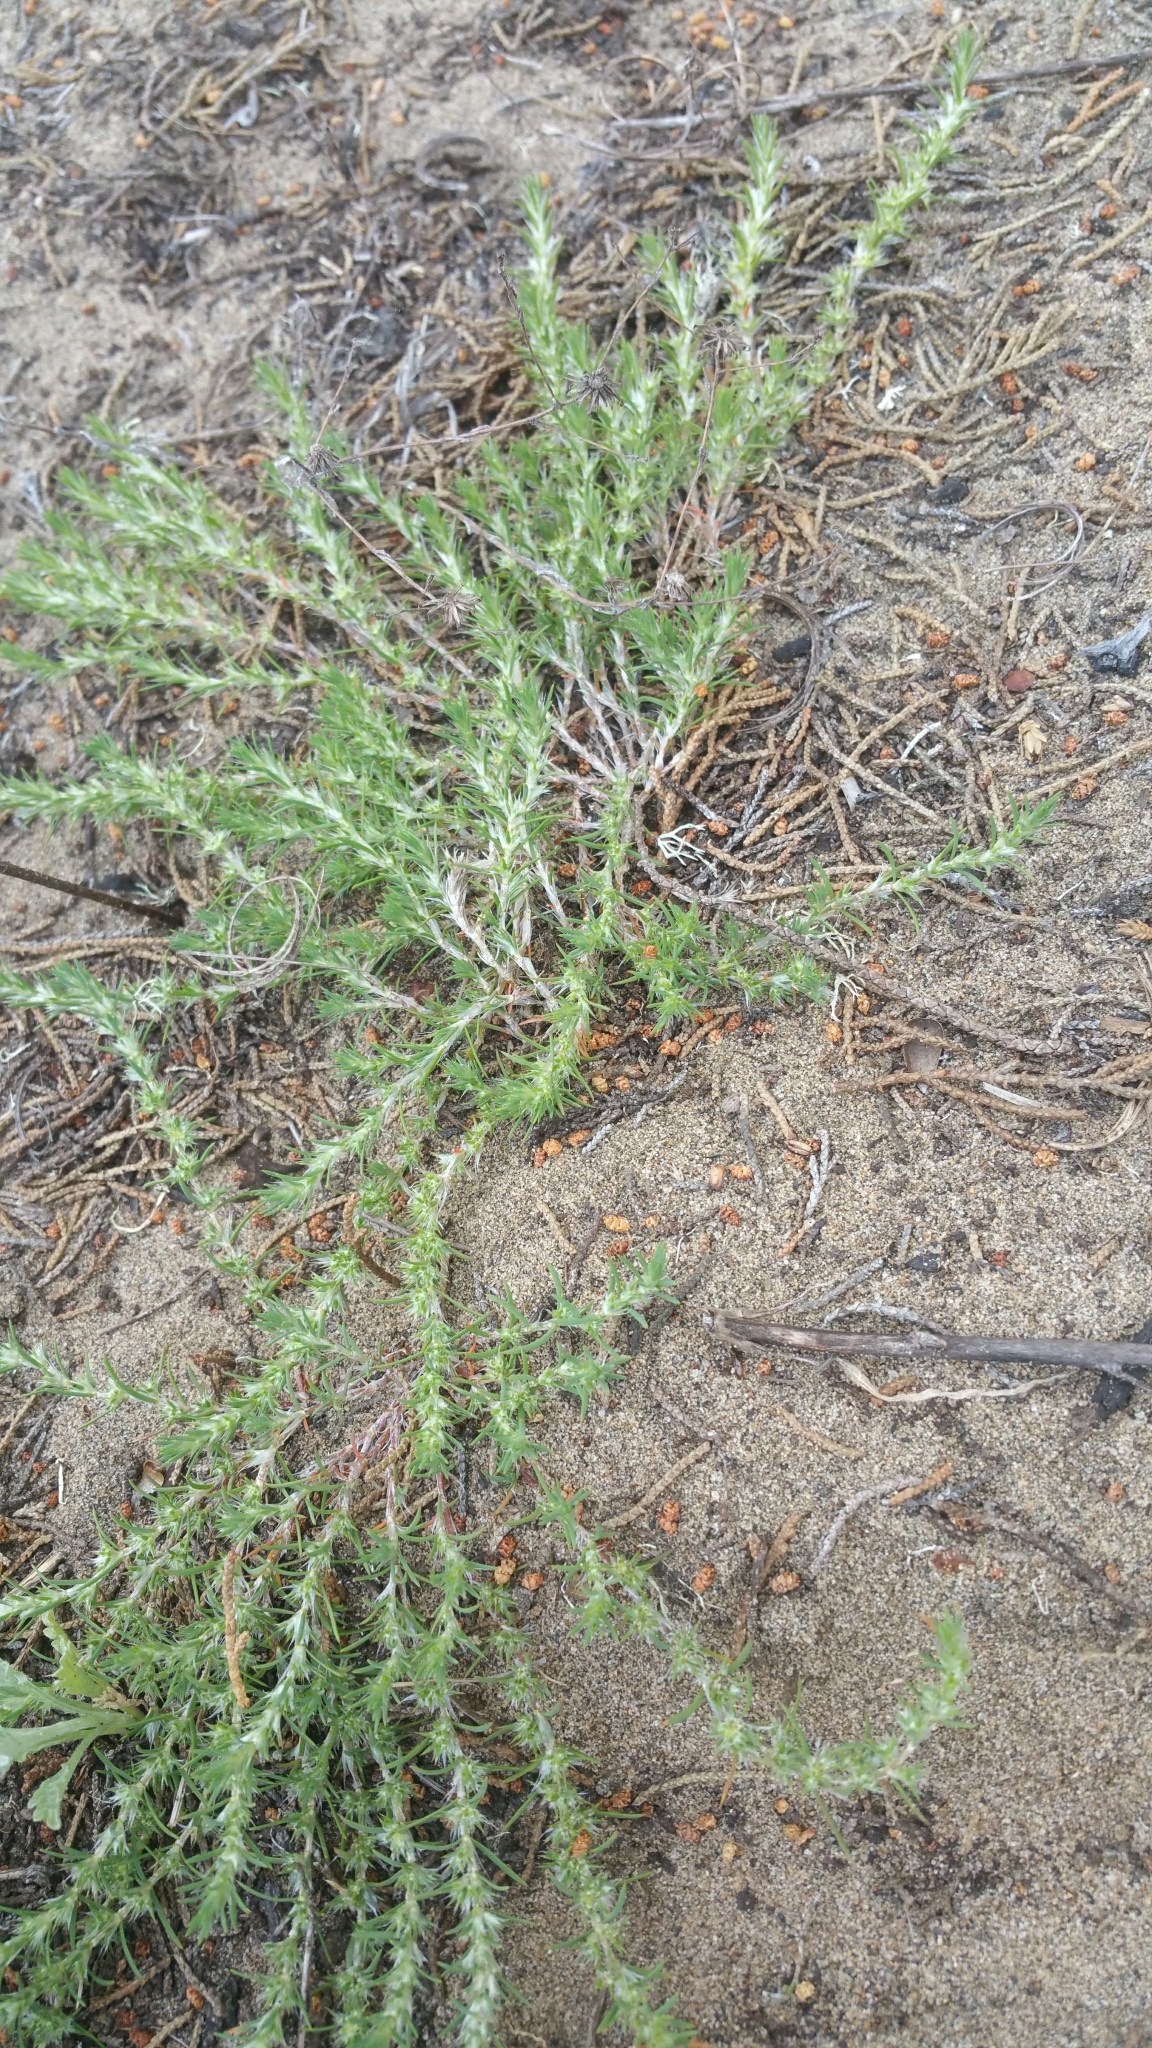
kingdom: Plantae
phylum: Tracheophyta
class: Magnoliopsida
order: Caryophyllales
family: Caryophyllaceae
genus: Cardionema
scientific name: Cardionema ramosissima
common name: Sandcarpet
